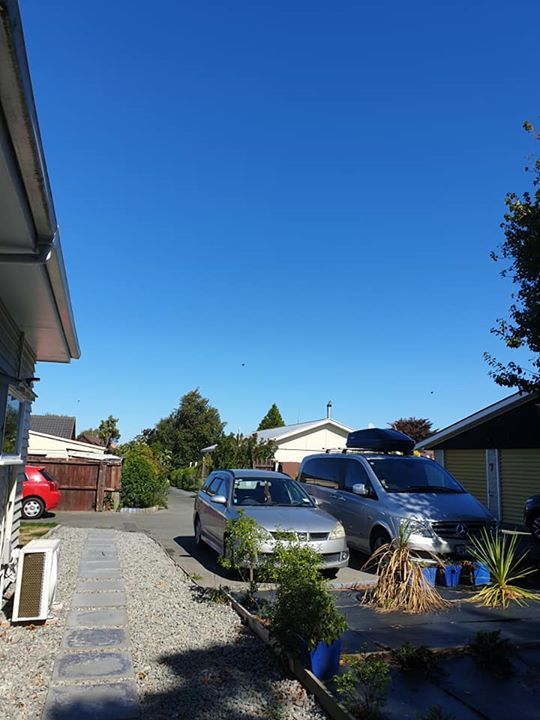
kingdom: Animalia
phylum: Chordata
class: Aves
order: Passeriformes
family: Sturnidae
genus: Sturnus
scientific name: Sturnus vulgaris
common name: Common starling
